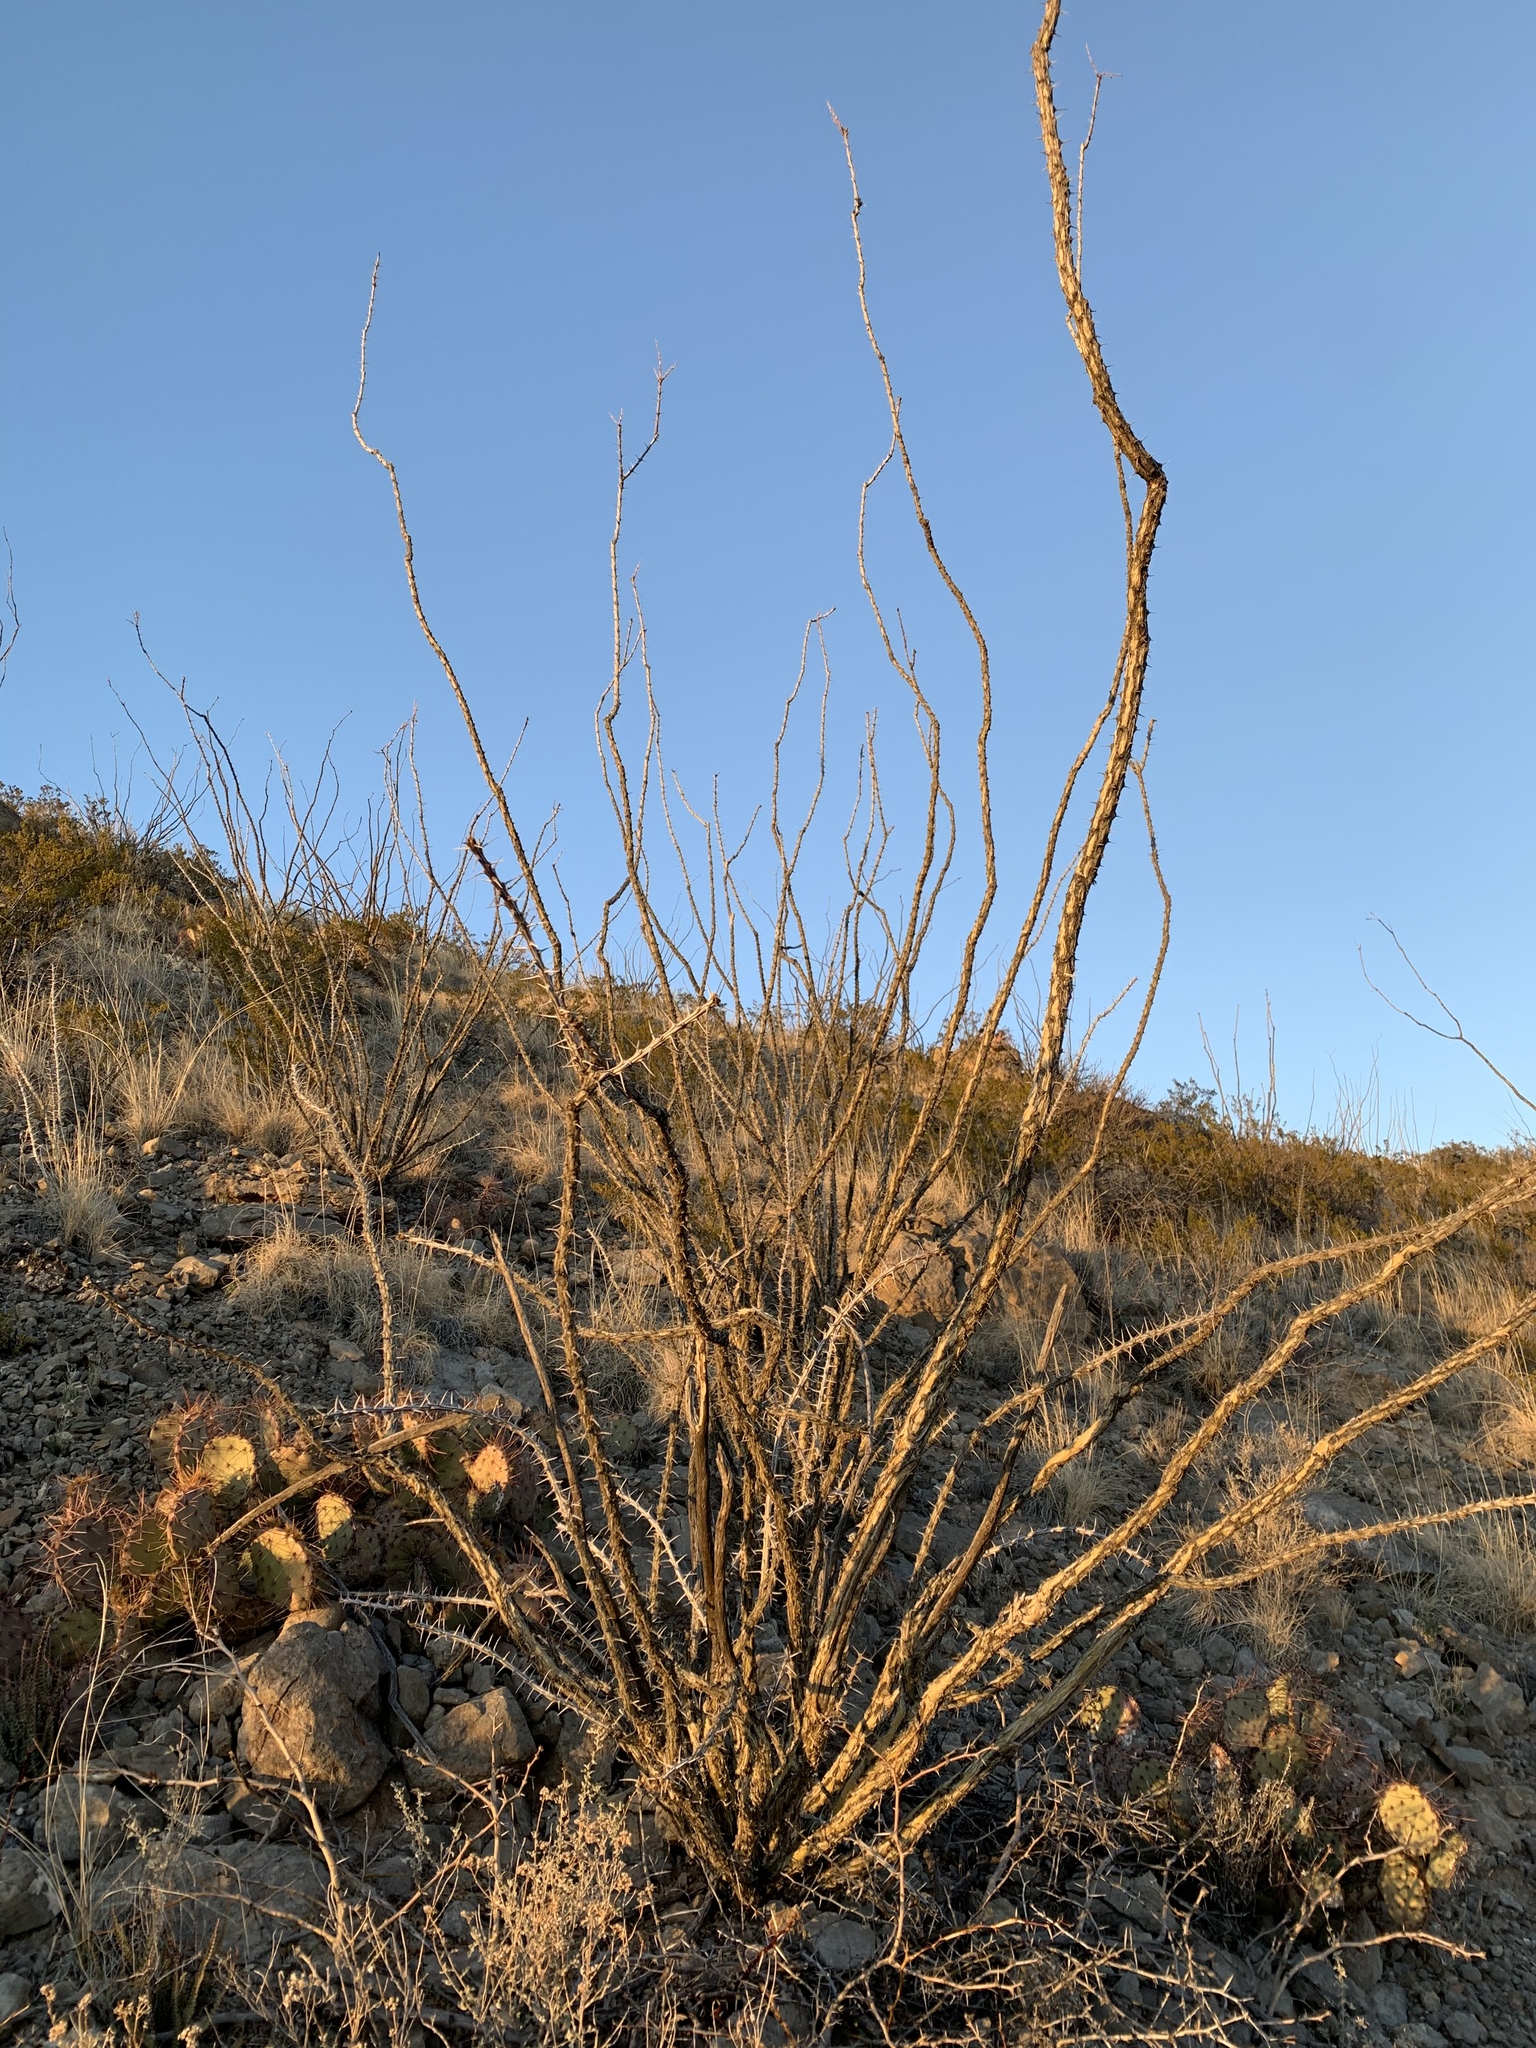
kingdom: Plantae
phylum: Tracheophyta
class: Magnoliopsida
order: Ericales
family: Fouquieriaceae
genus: Fouquieria
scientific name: Fouquieria splendens
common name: Vine-cactus
